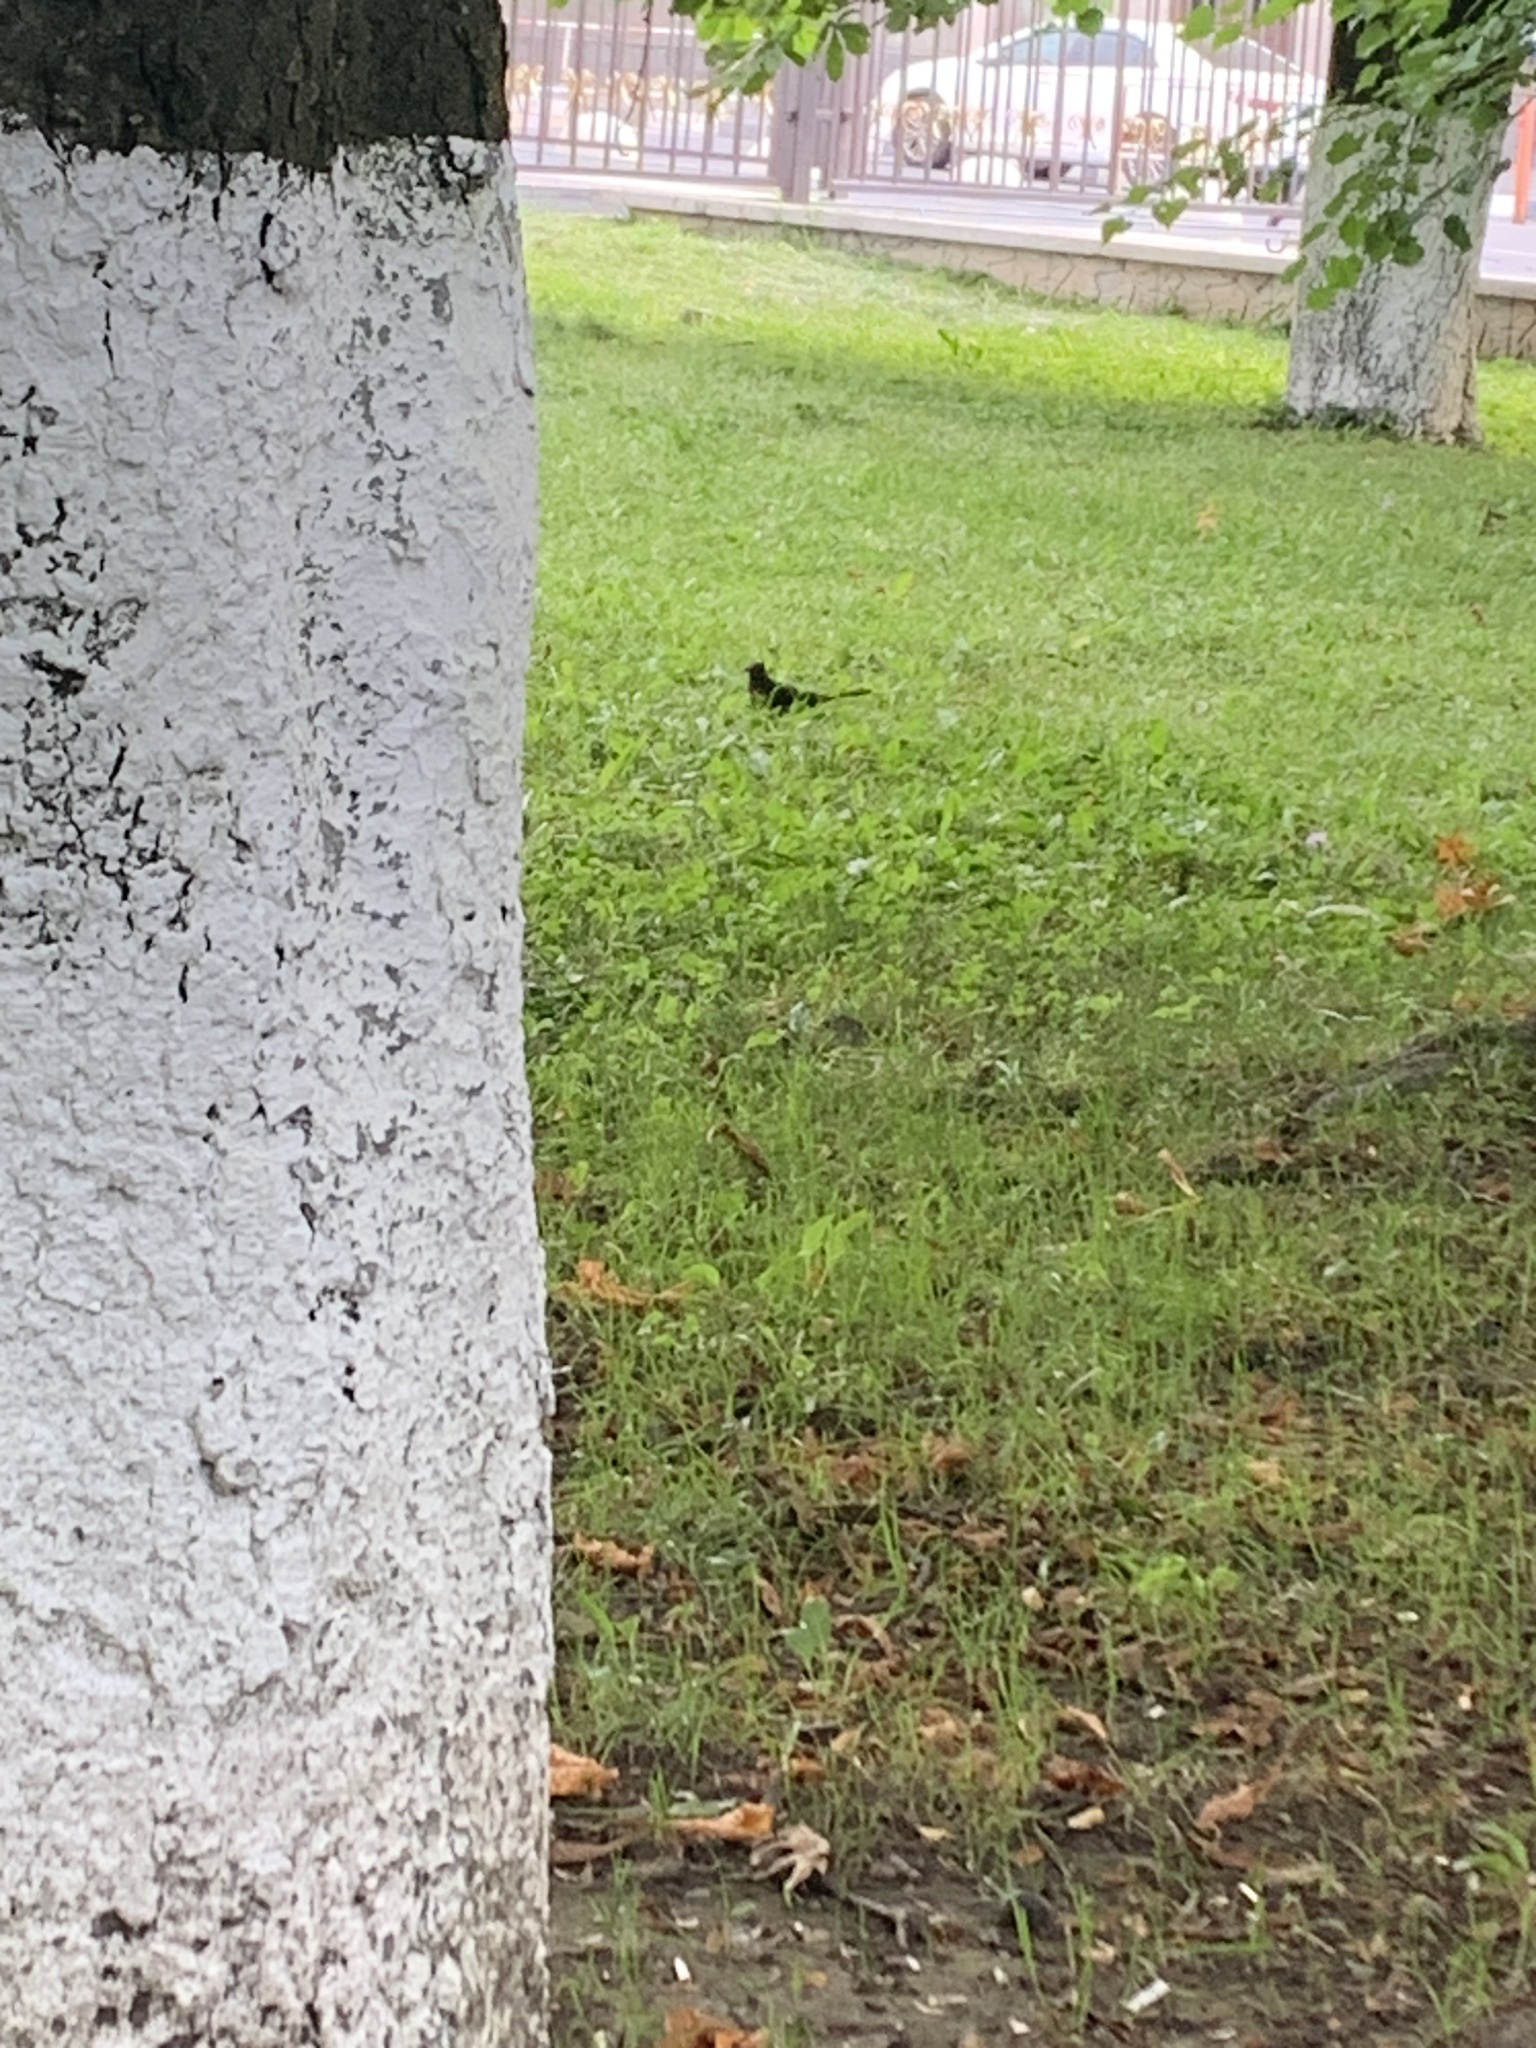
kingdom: Animalia
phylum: Chordata
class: Aves
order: Passeriformes
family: Turdidae
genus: Turdus
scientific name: Turdus merula
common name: Common blackbird
